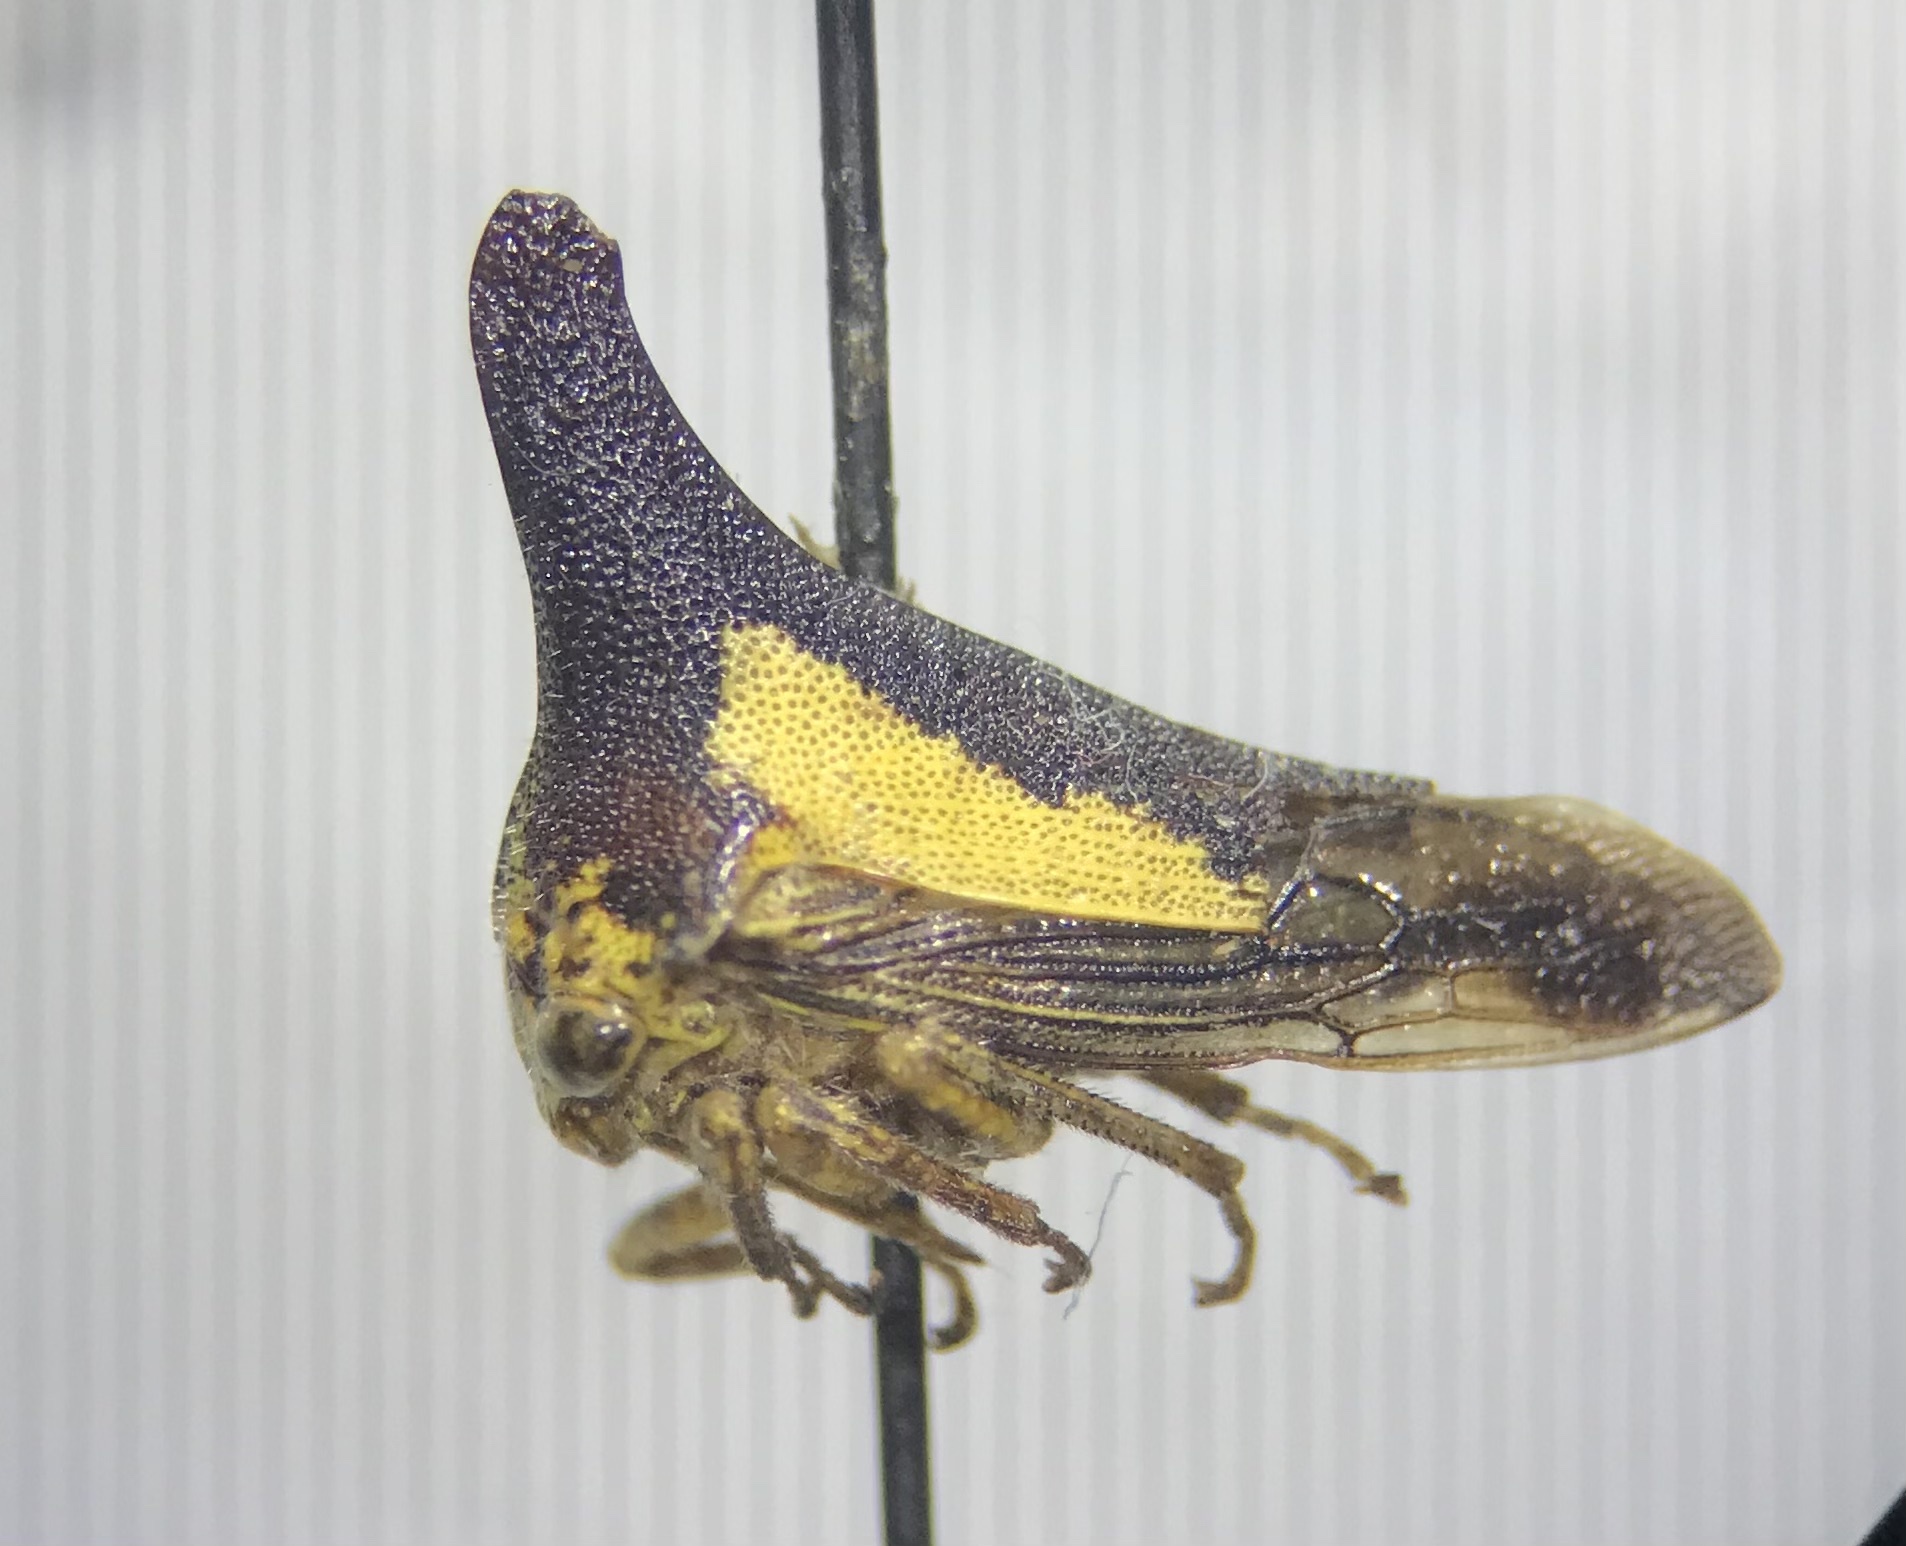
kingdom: Animalia
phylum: Arthropoda
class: Insecta
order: Hemiptera
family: Membracidae
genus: Thelia
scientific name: Thelia bimaculata
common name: Locust treehopper
